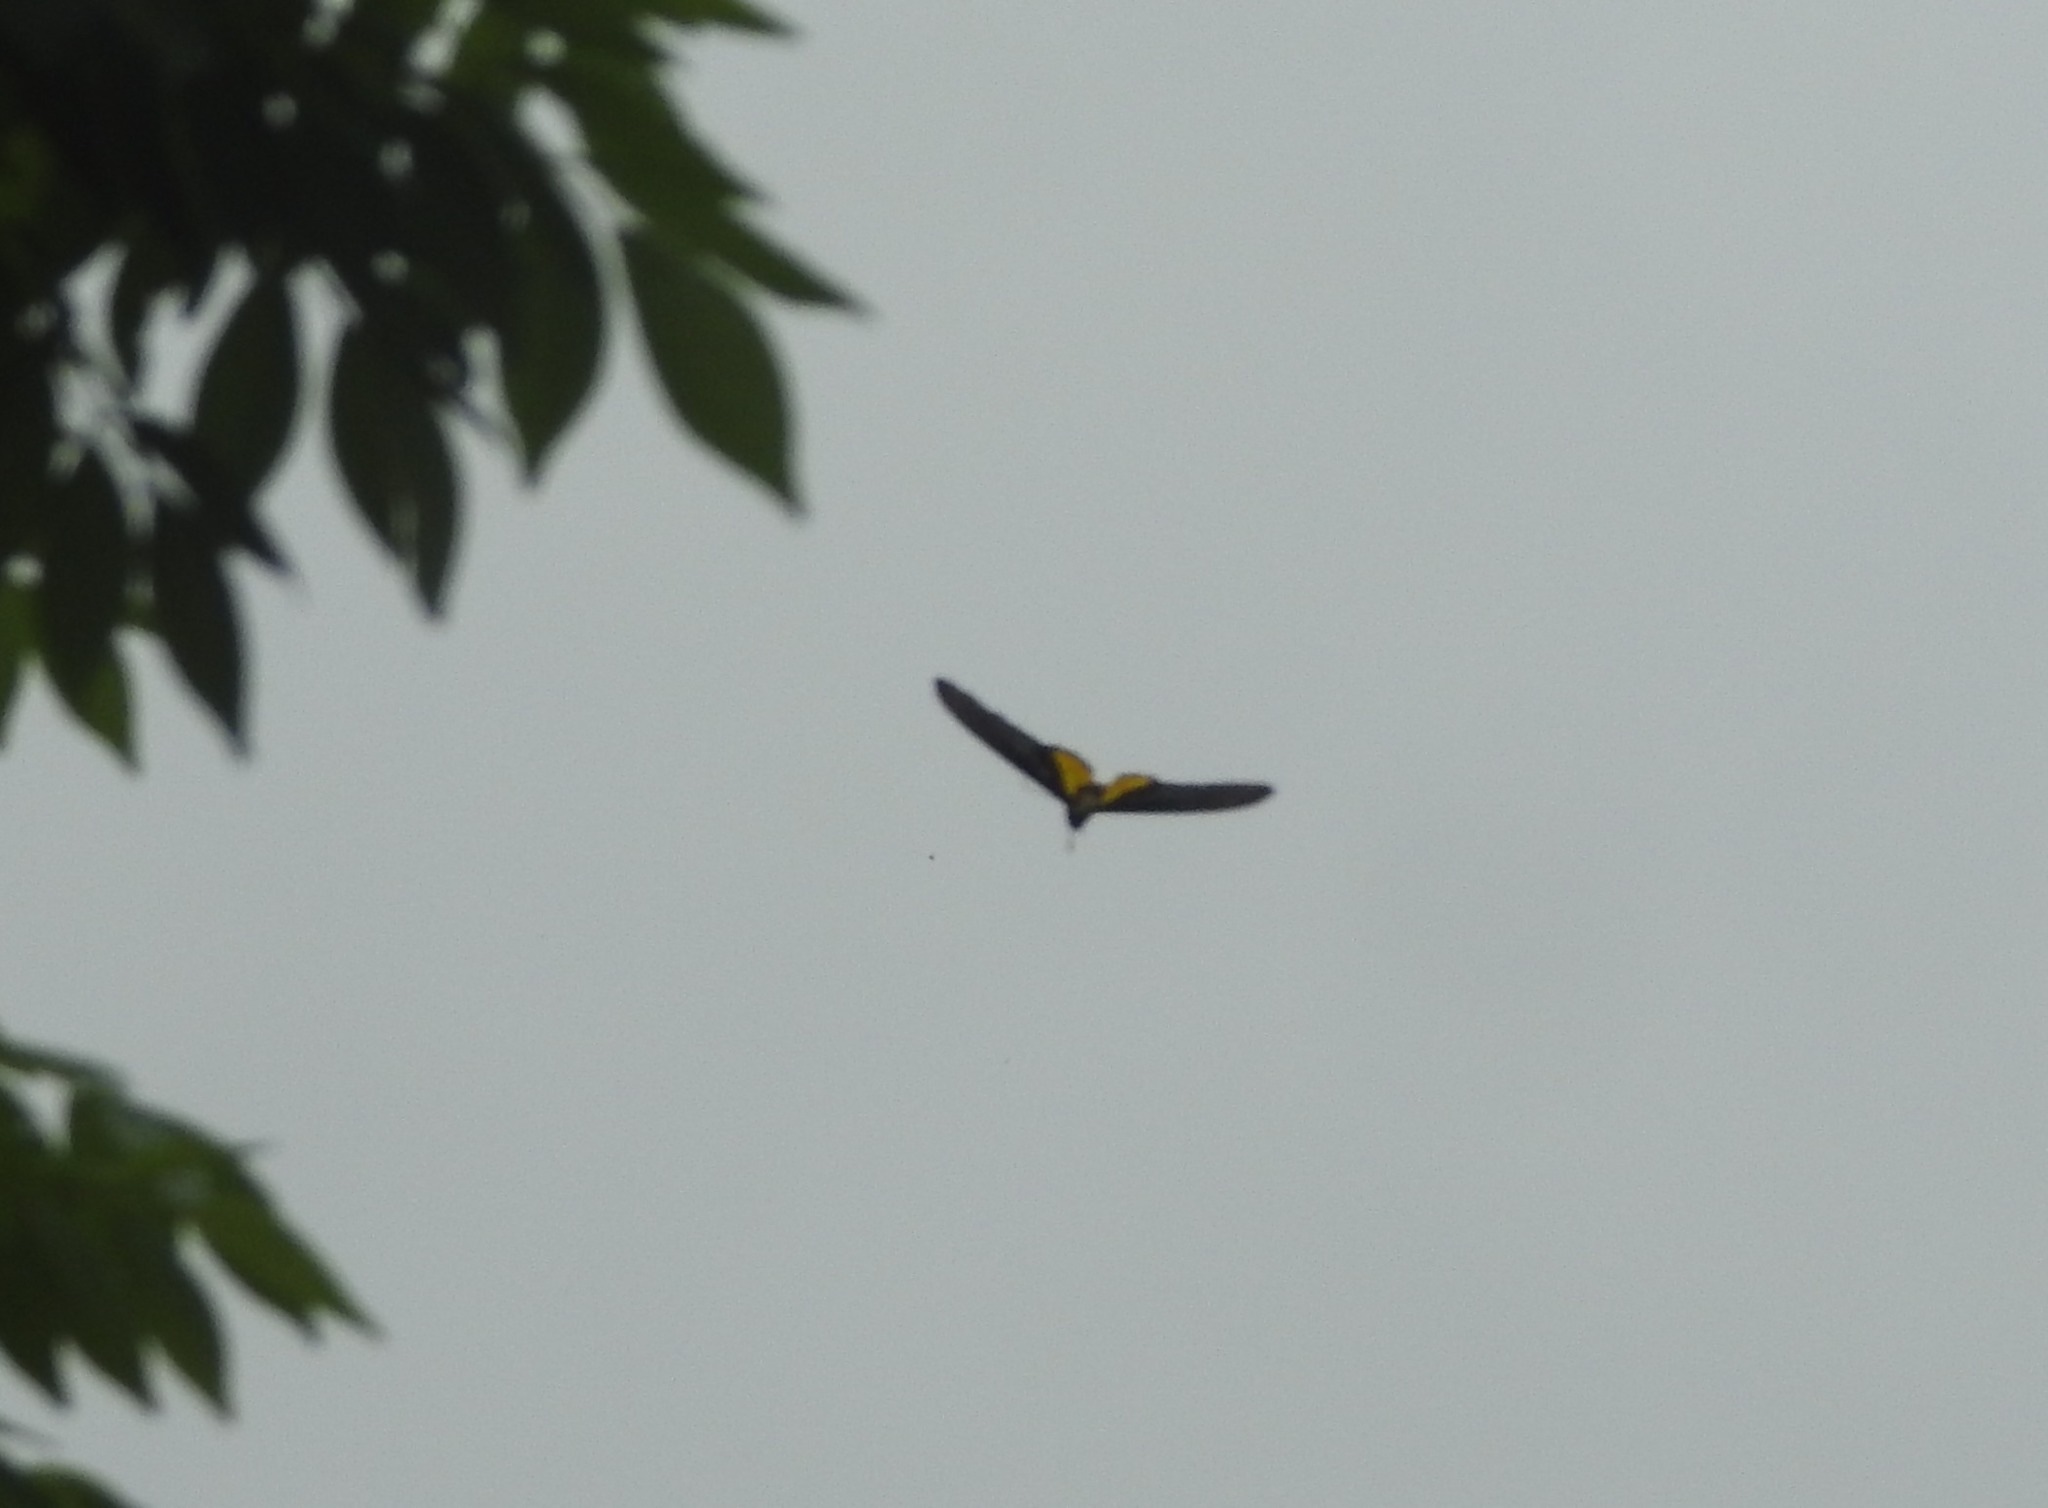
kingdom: Animalia
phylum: Arthropoda
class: Insecta
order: Lepidoptera
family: Papilionidae
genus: Troides
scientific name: Troides minos
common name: Malabar birdwing
